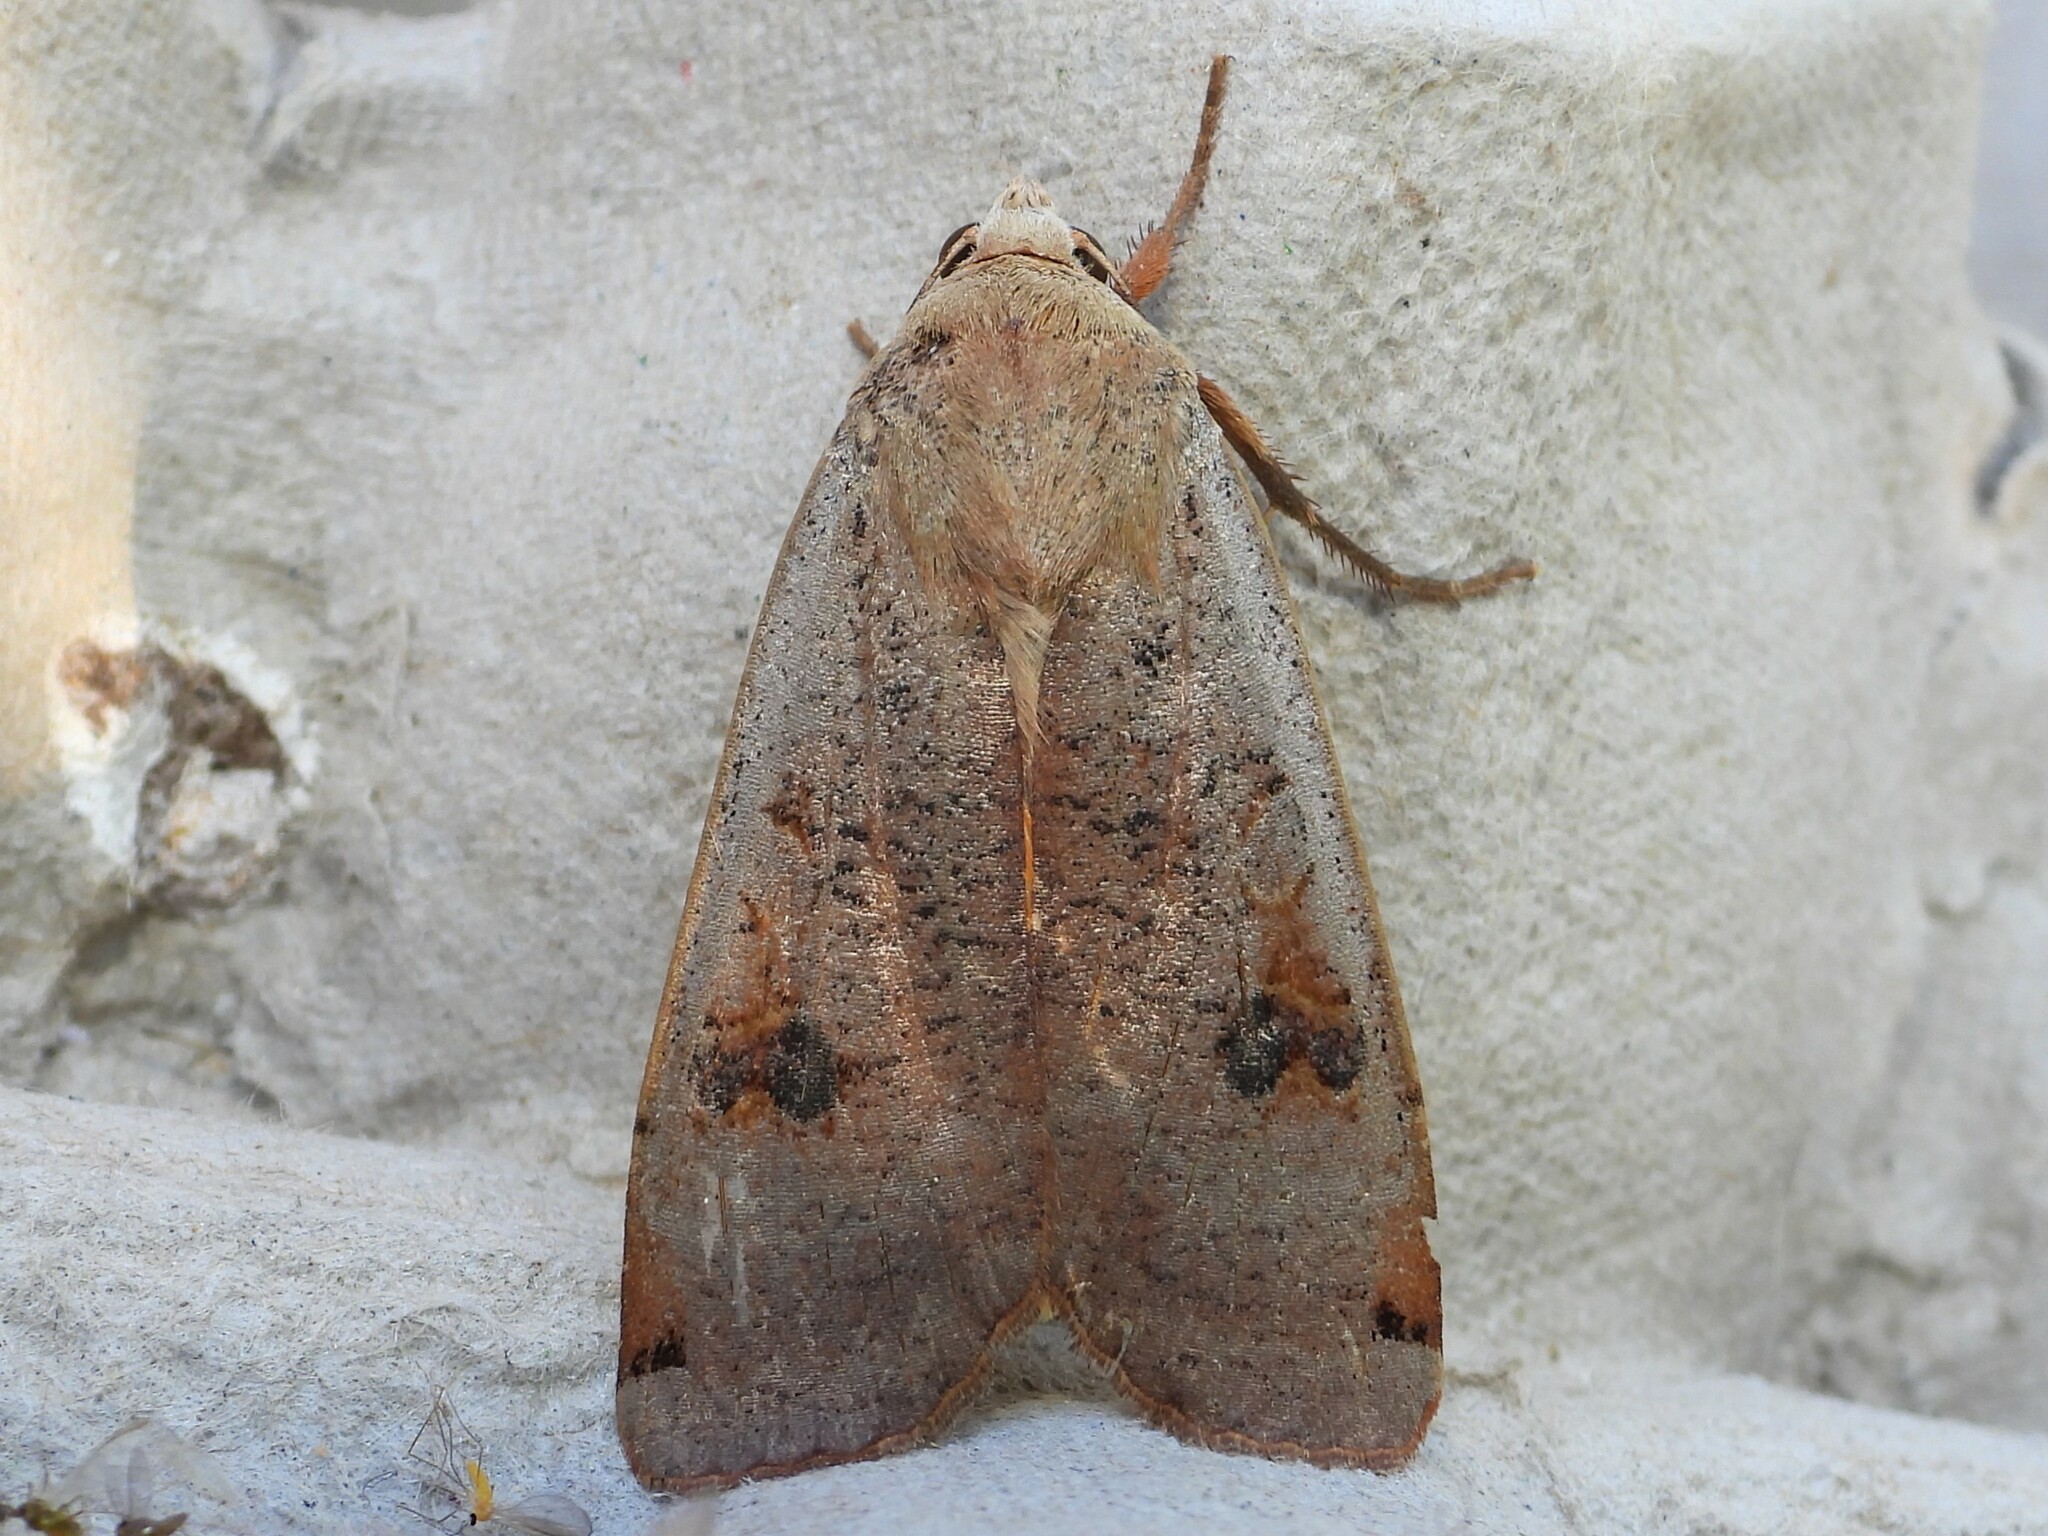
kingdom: Animalia
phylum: Arthropoda
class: Insecta
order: Lepidoptera
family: Noctuidae
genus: Noctua
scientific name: Noctua pronuba
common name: Large yellow underwing
